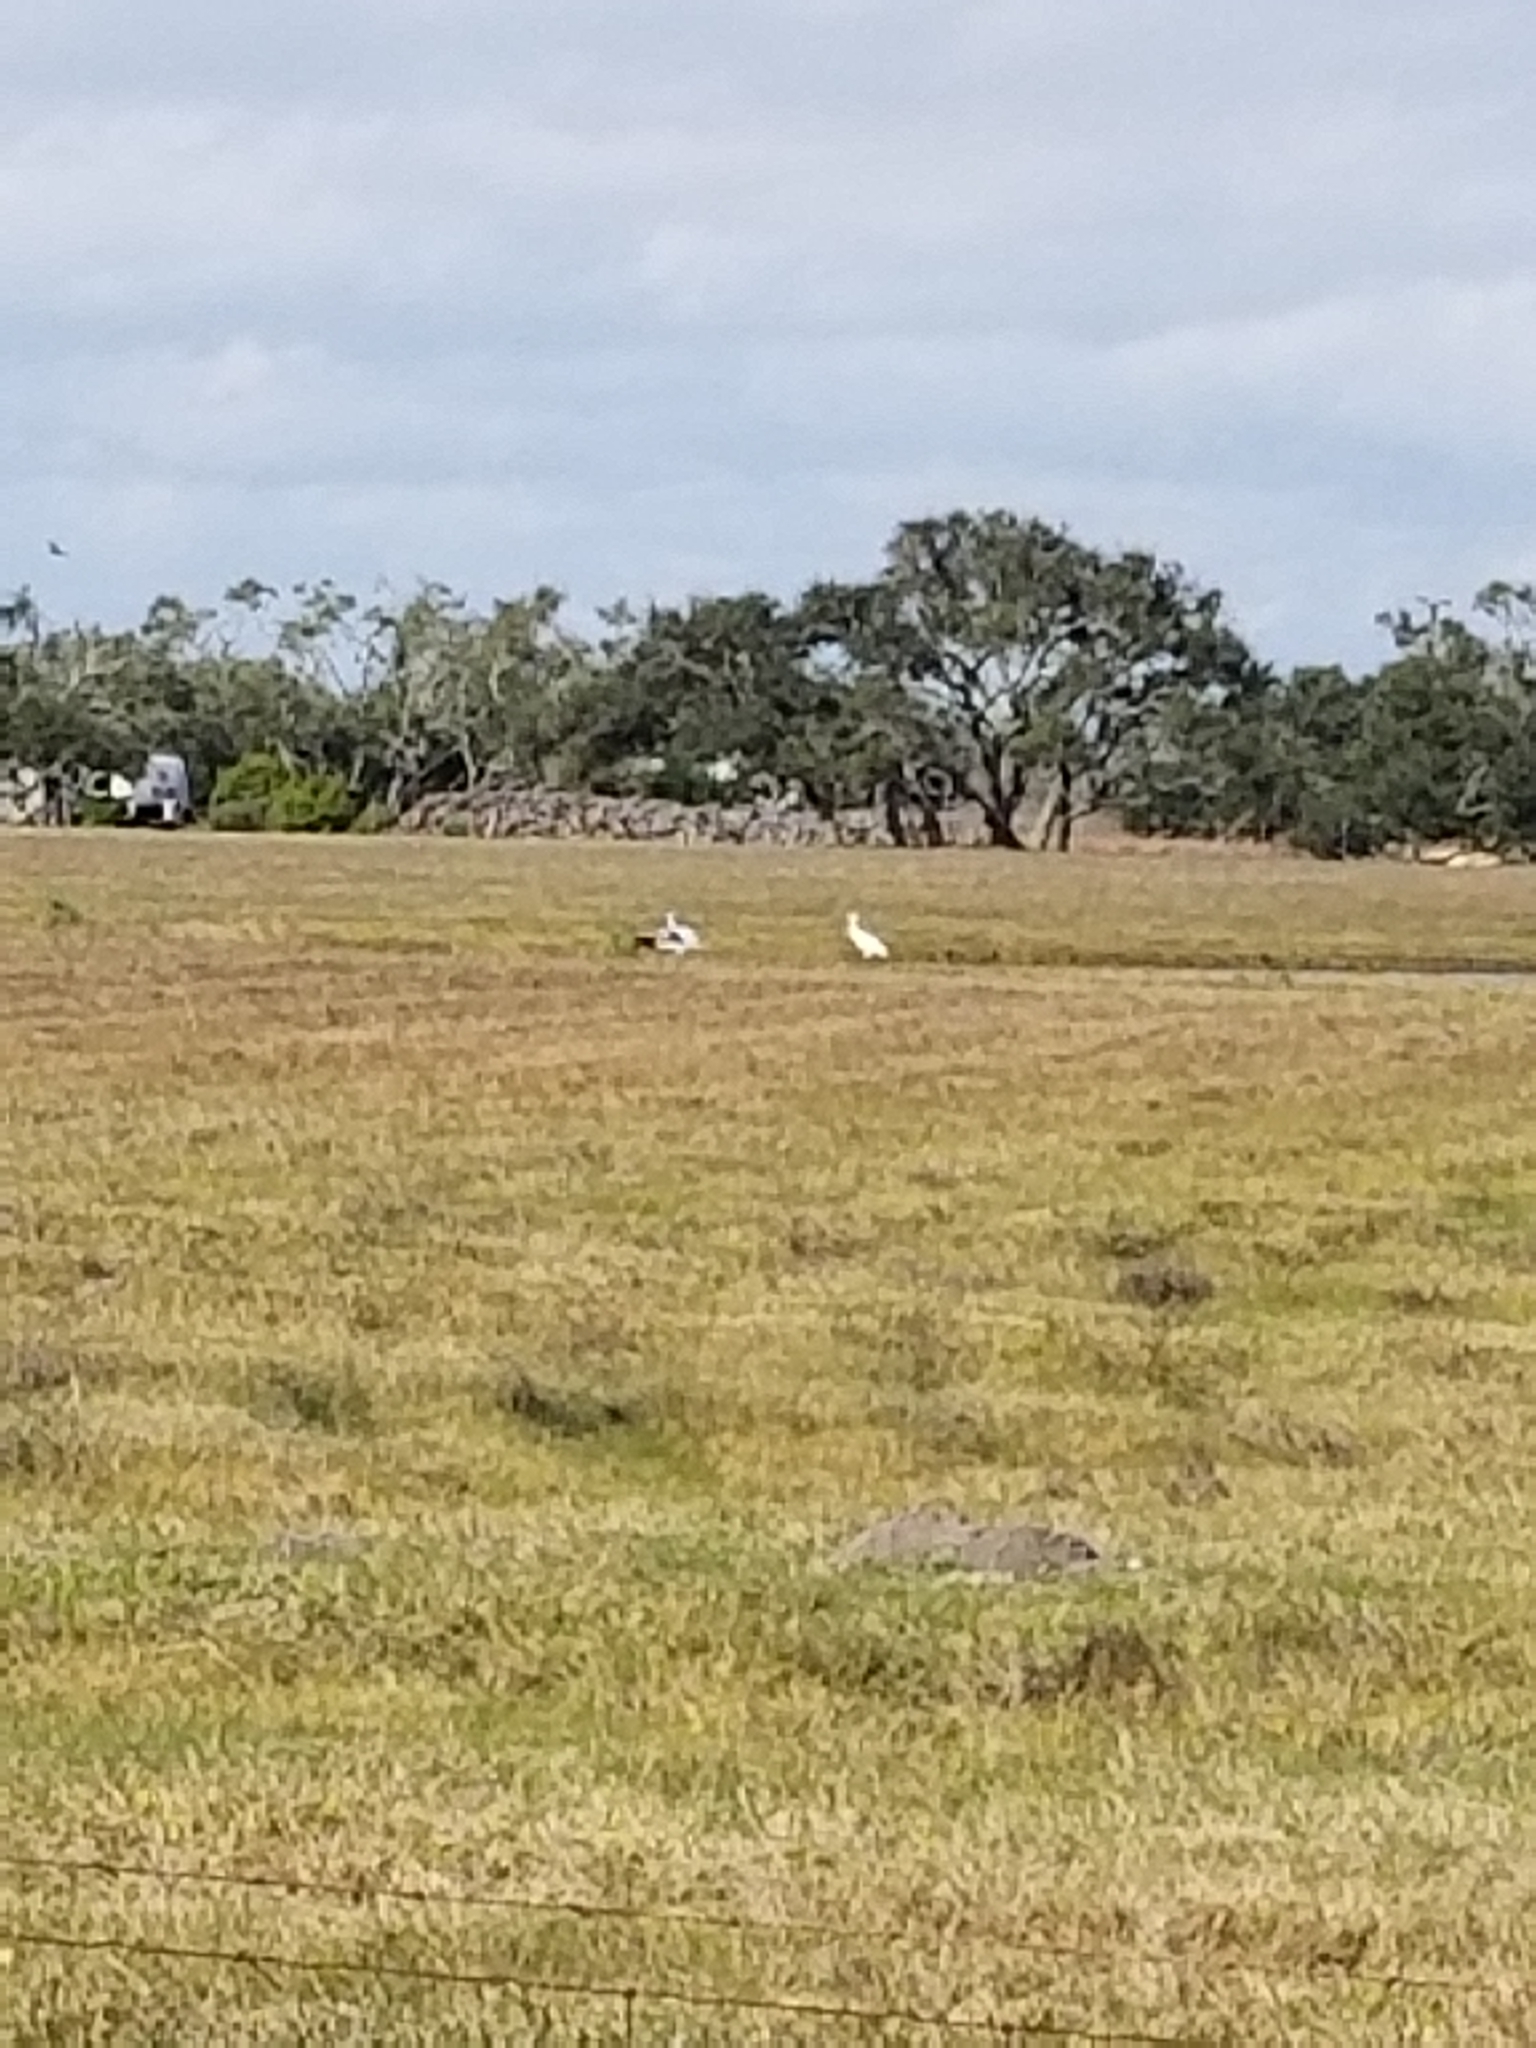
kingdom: Animalia
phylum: Chordata
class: Aves
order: Gruiformes
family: Gruidae
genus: Grus
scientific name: Grus americana
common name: Whooping crane
